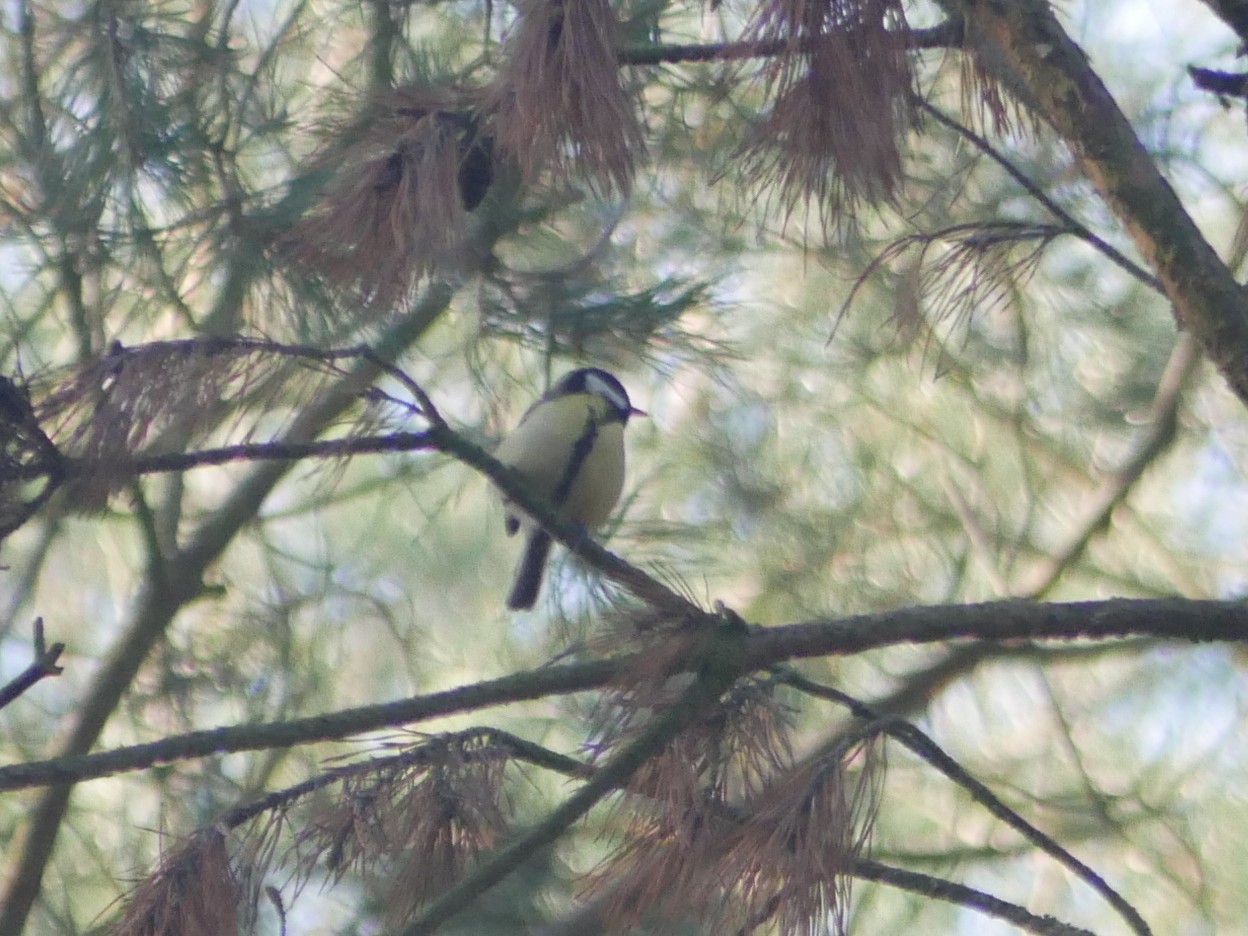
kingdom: Animalia
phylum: Chordata
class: Aves
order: Passeriformes
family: Paridae
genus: Parus
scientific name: Parus major
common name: Great tit
